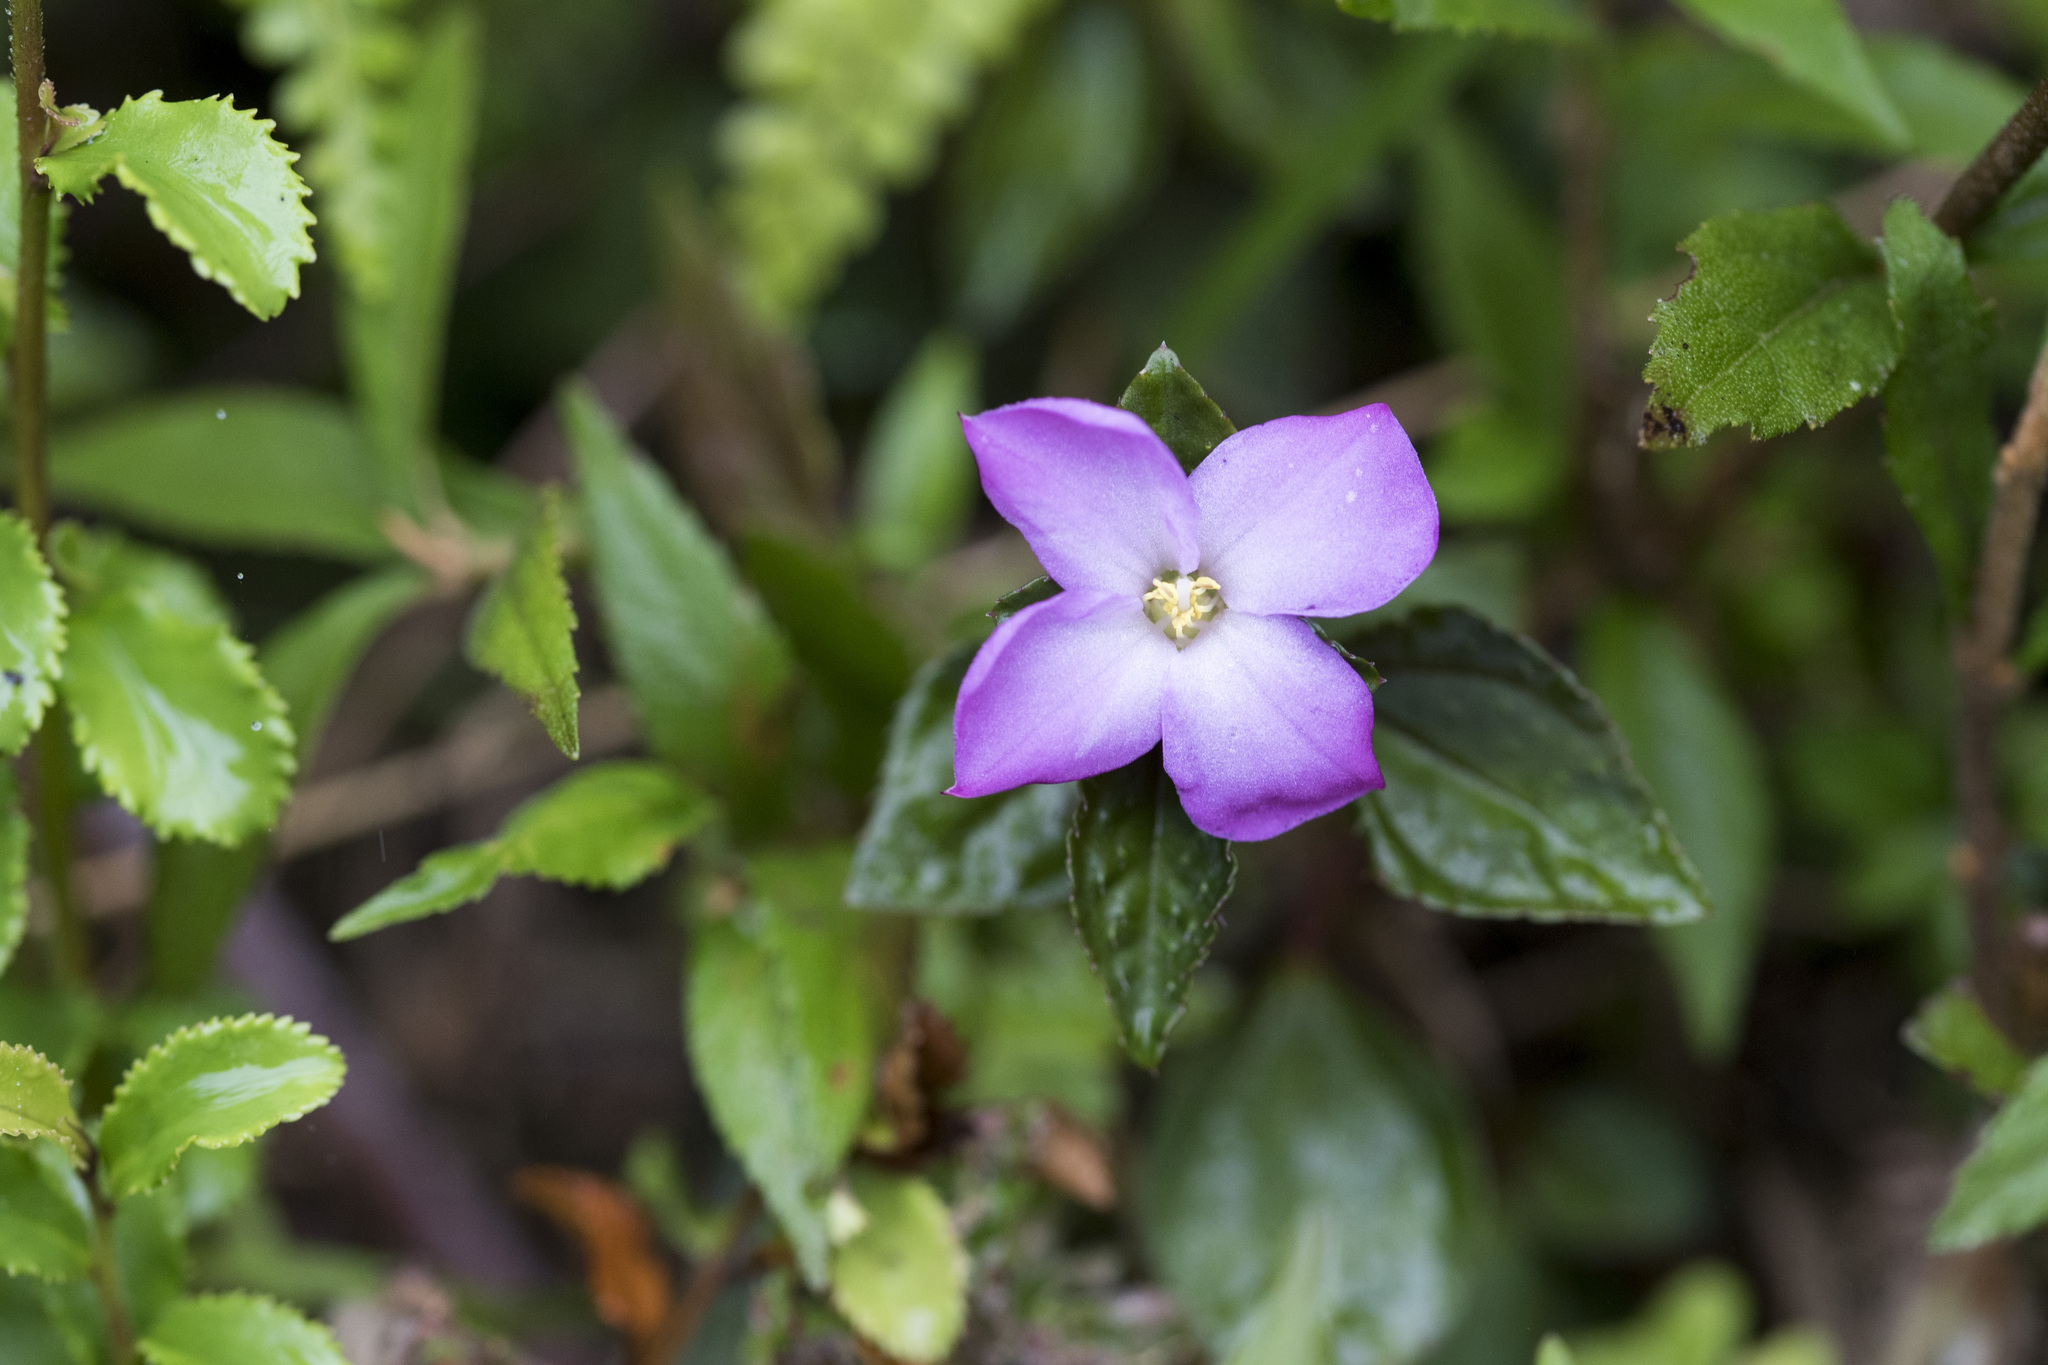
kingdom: Plantae
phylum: Tracheophyta
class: Magnoliopsida
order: Myrtales
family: Melastomataceae
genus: Sarcopyramis
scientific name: Sarcopyramis bodinieri
